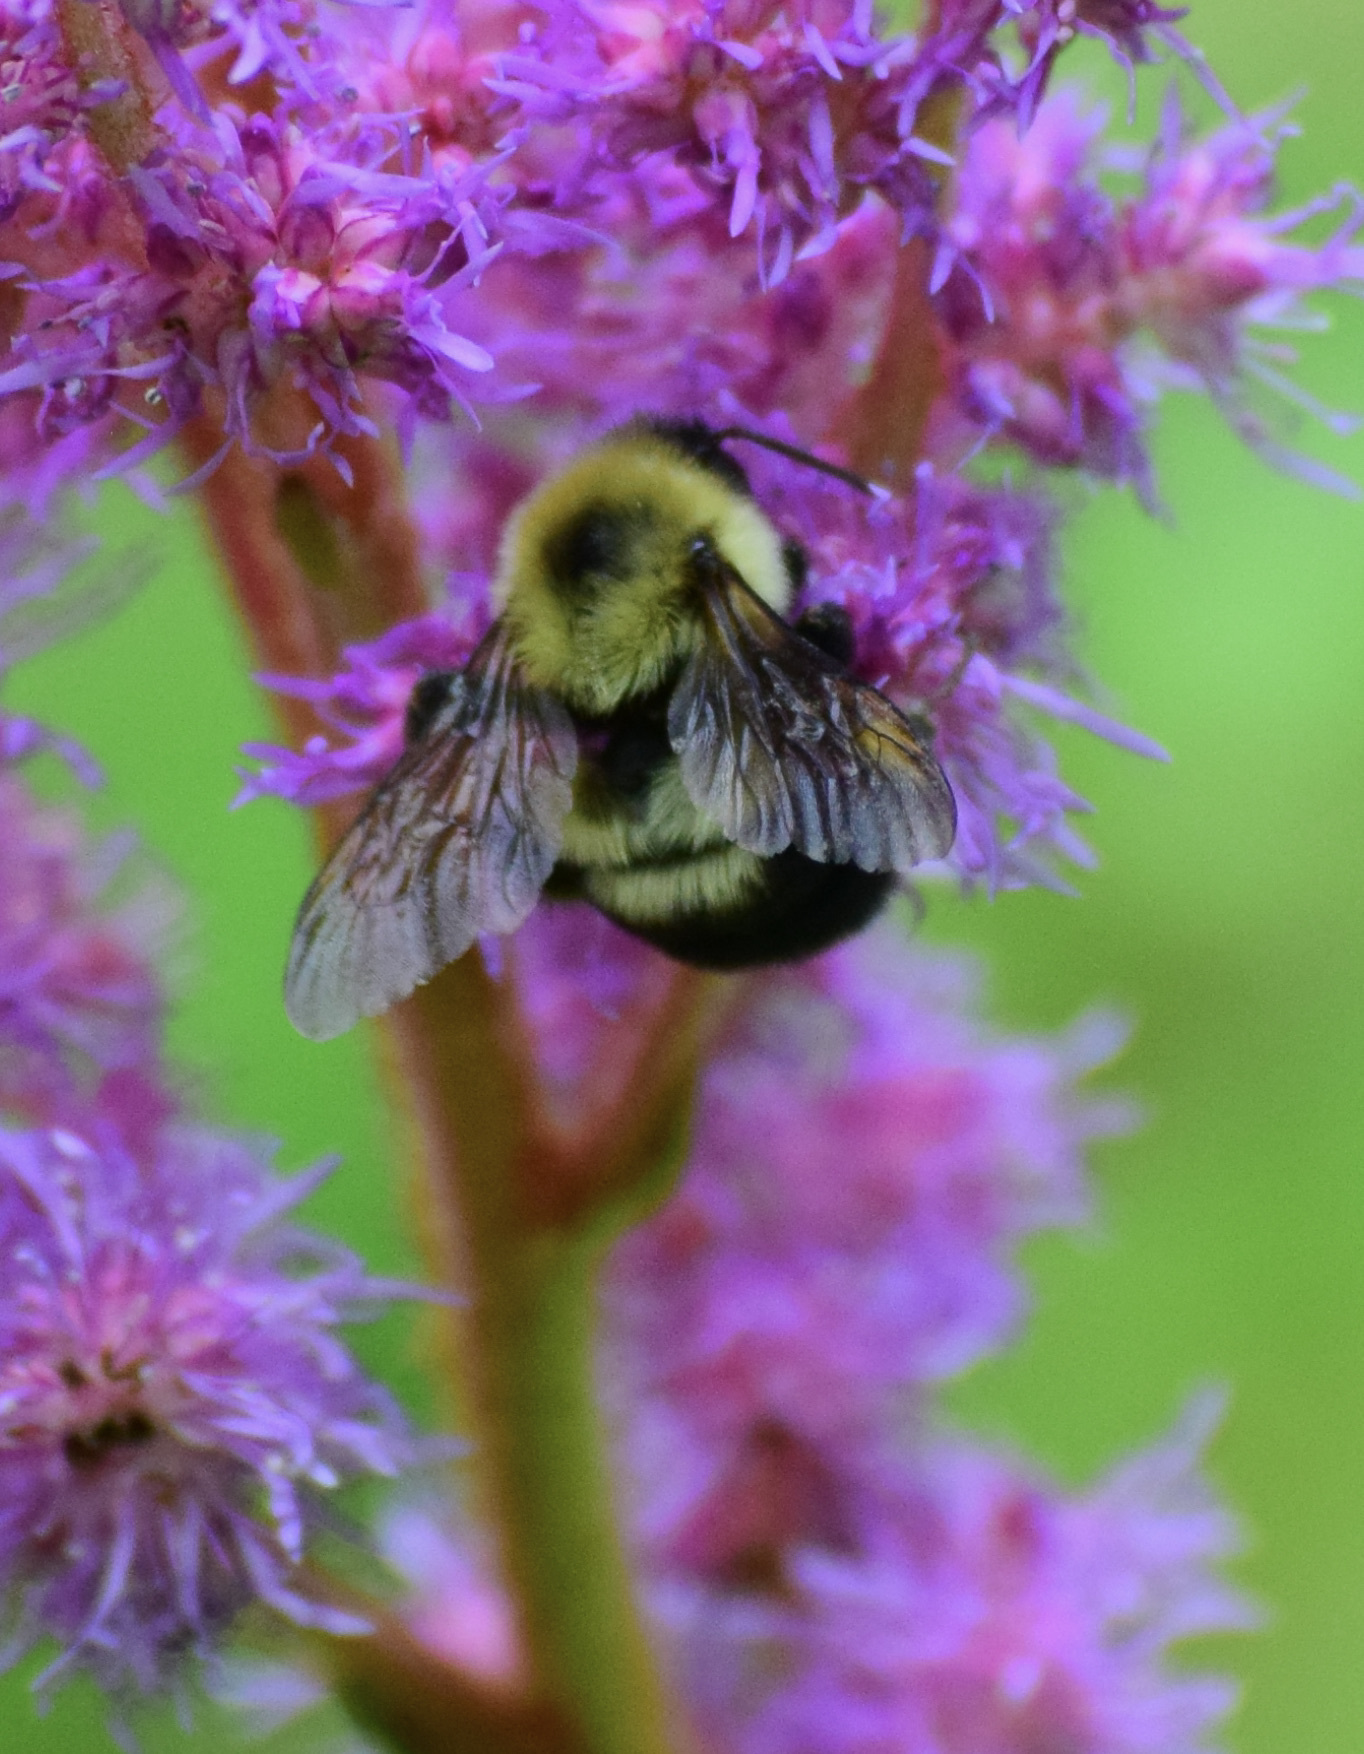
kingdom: Animalia
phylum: Arthropoda
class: Insecta
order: Hymenoptera
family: Apidae
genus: Bombus
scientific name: Bombus bimaculatus
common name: Two-spotted bumble bee
